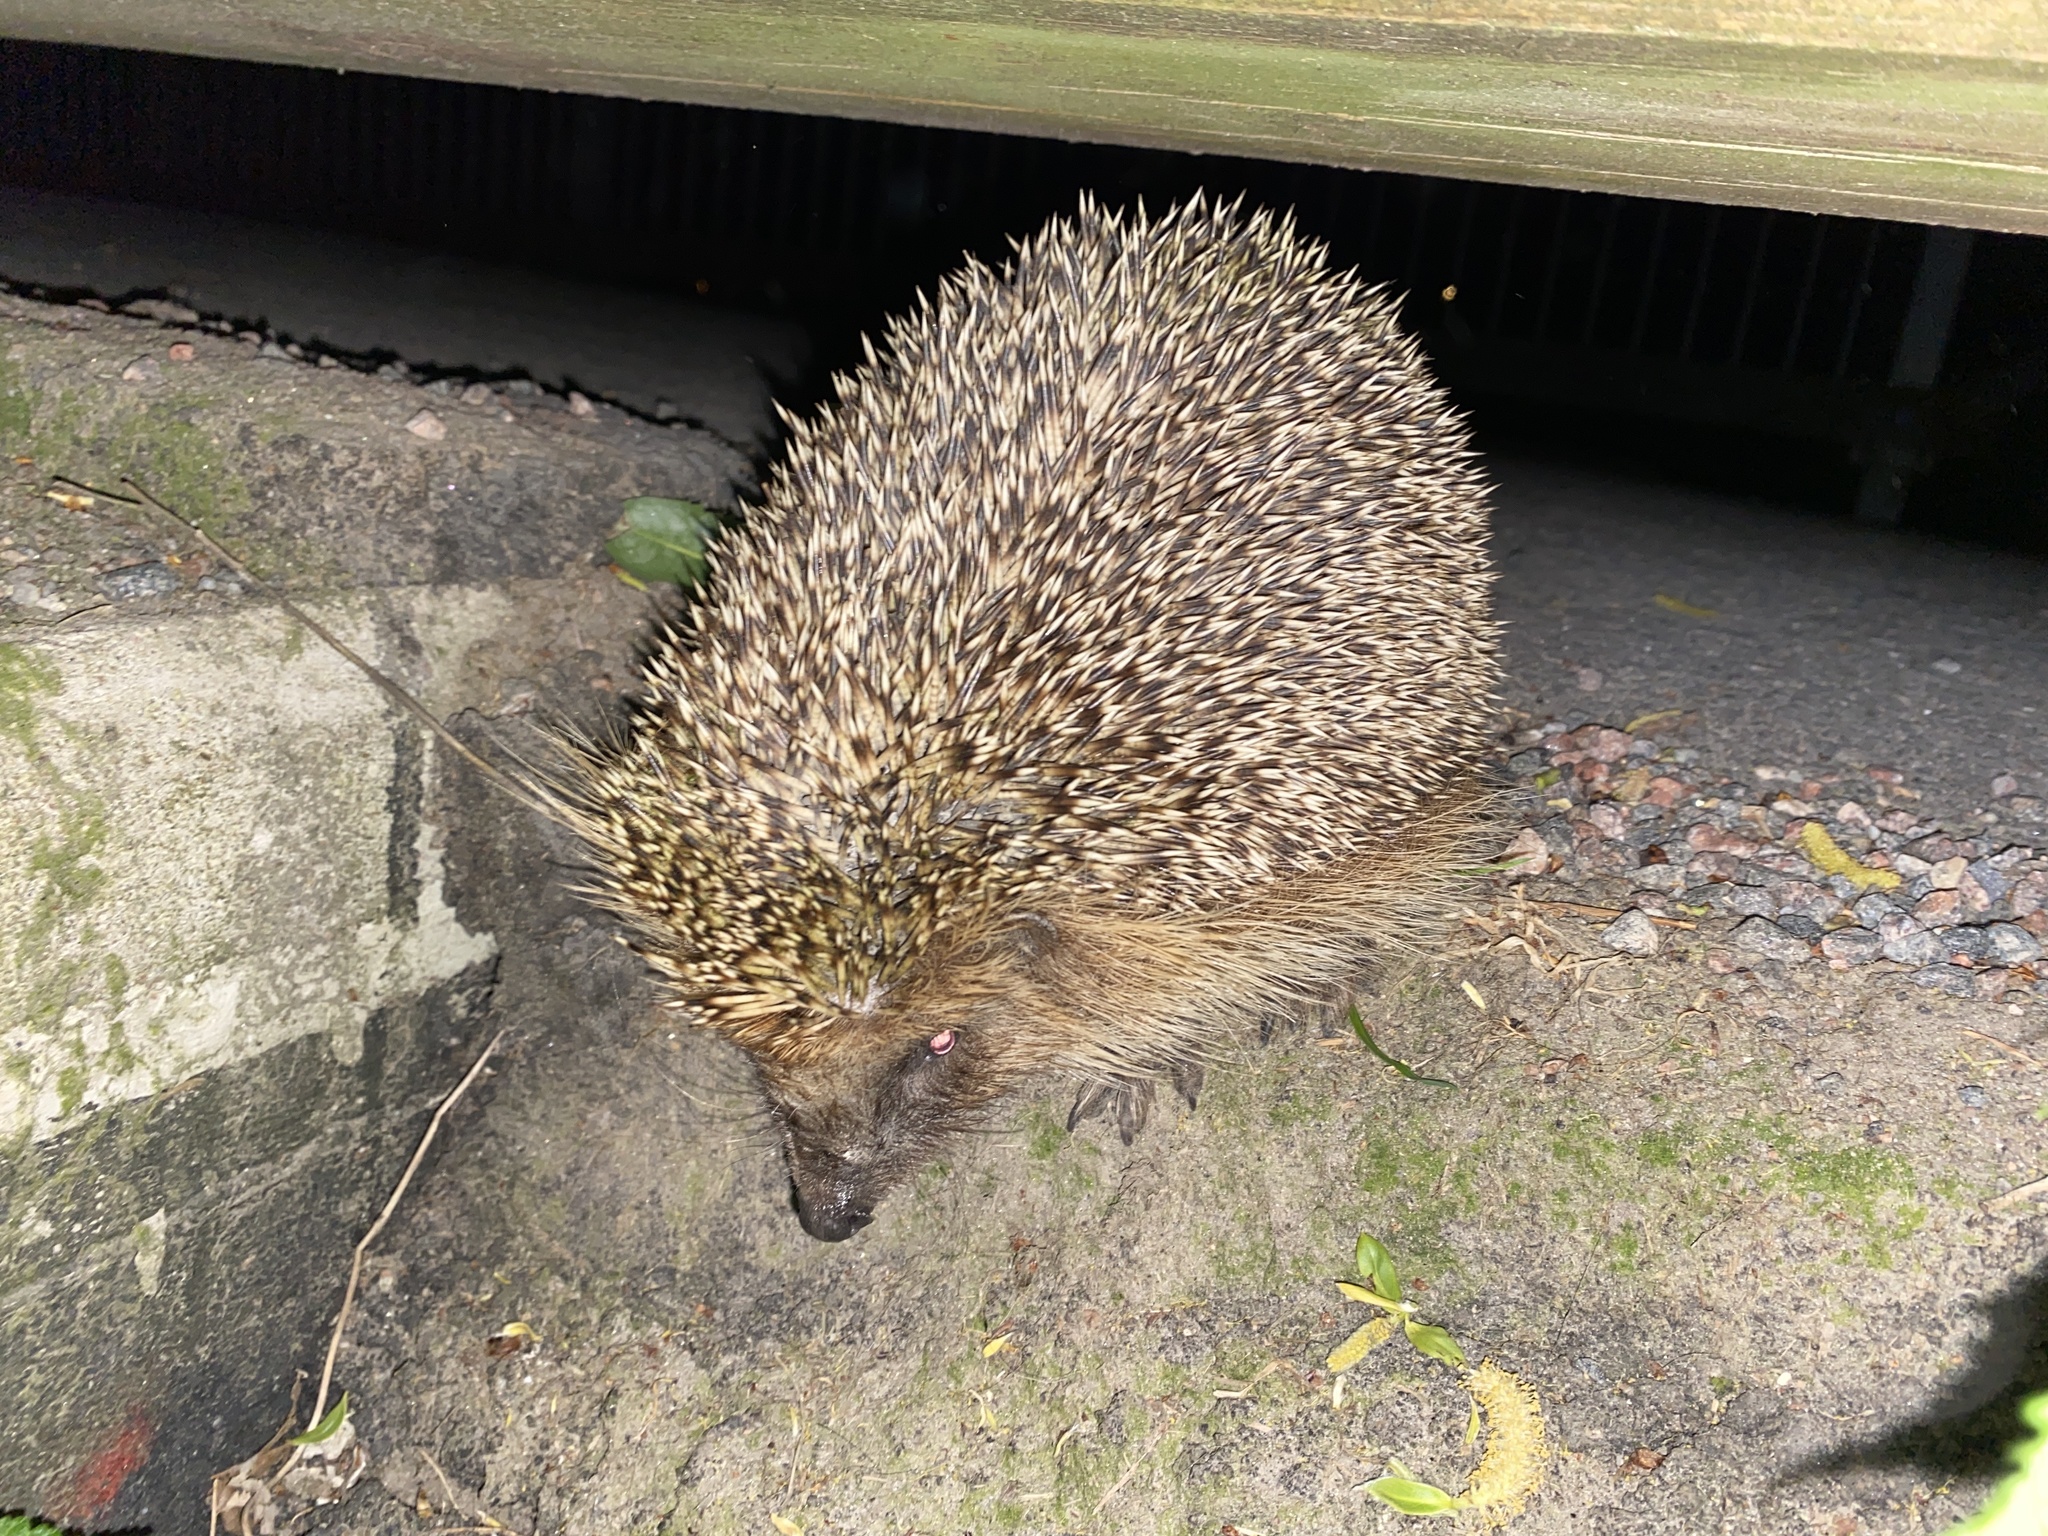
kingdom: Animalia
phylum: Chordata
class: Mammalia
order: Erinaceomorpha
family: Erinaceidae
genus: Erinaceus
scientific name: Erinaceus europaeus
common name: West european hedgehog
